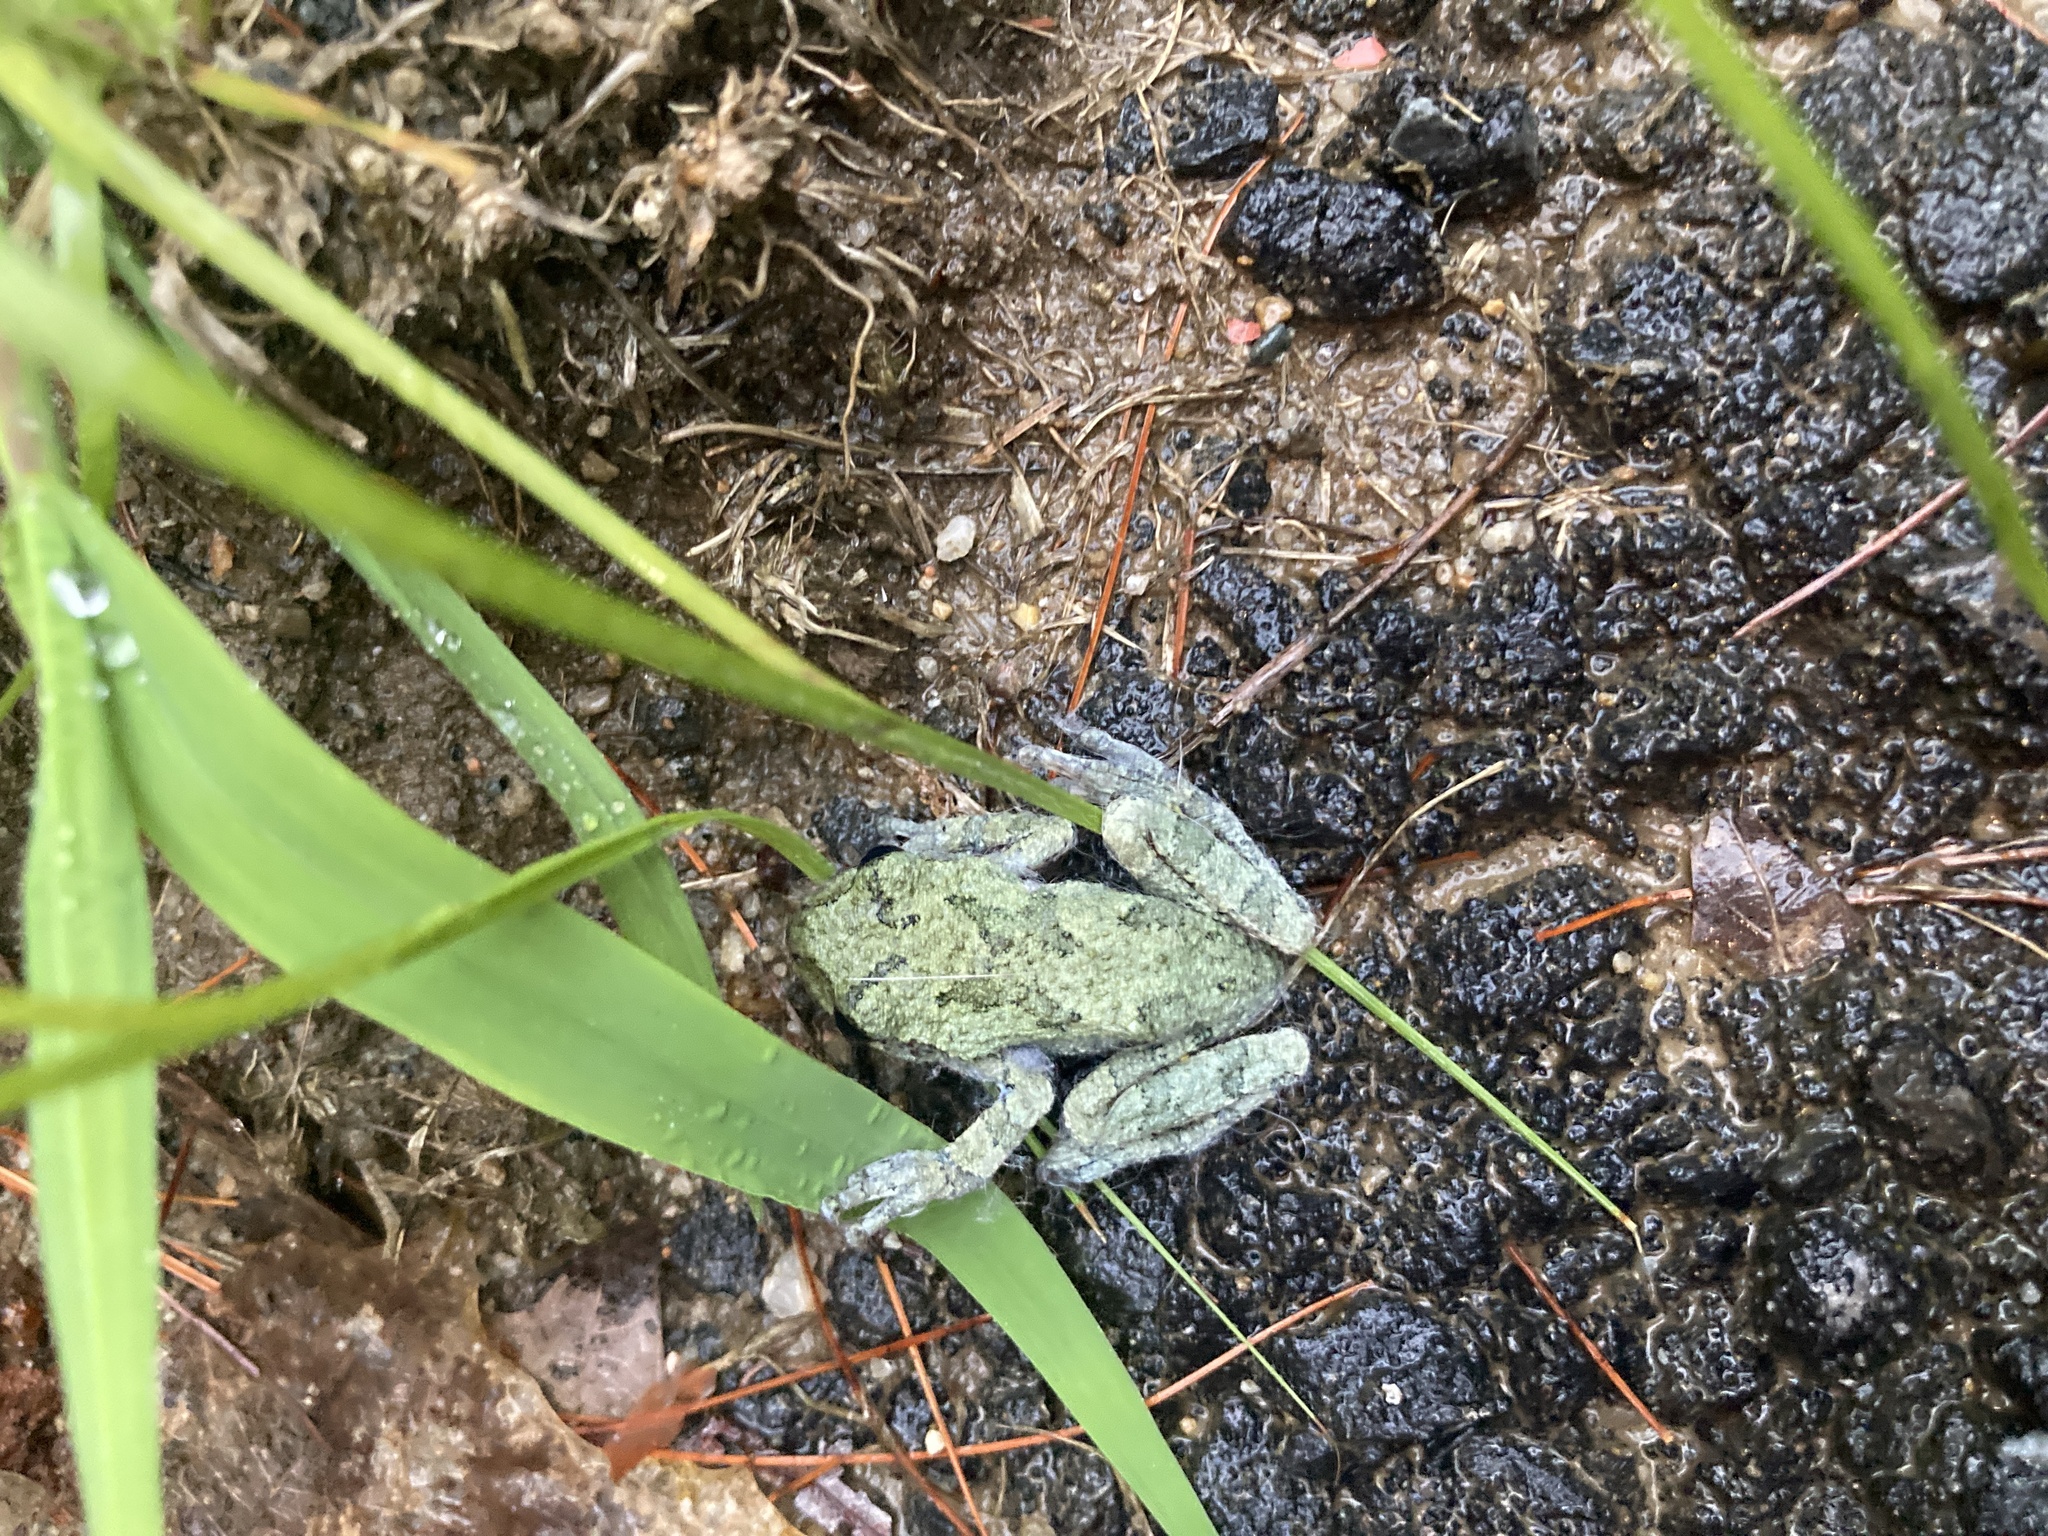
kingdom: Animalia
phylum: Chordata
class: Amphibia
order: Anura
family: Hylidae
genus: Dryophytes
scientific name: Dryophytes versicolor
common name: Gray treefrog
